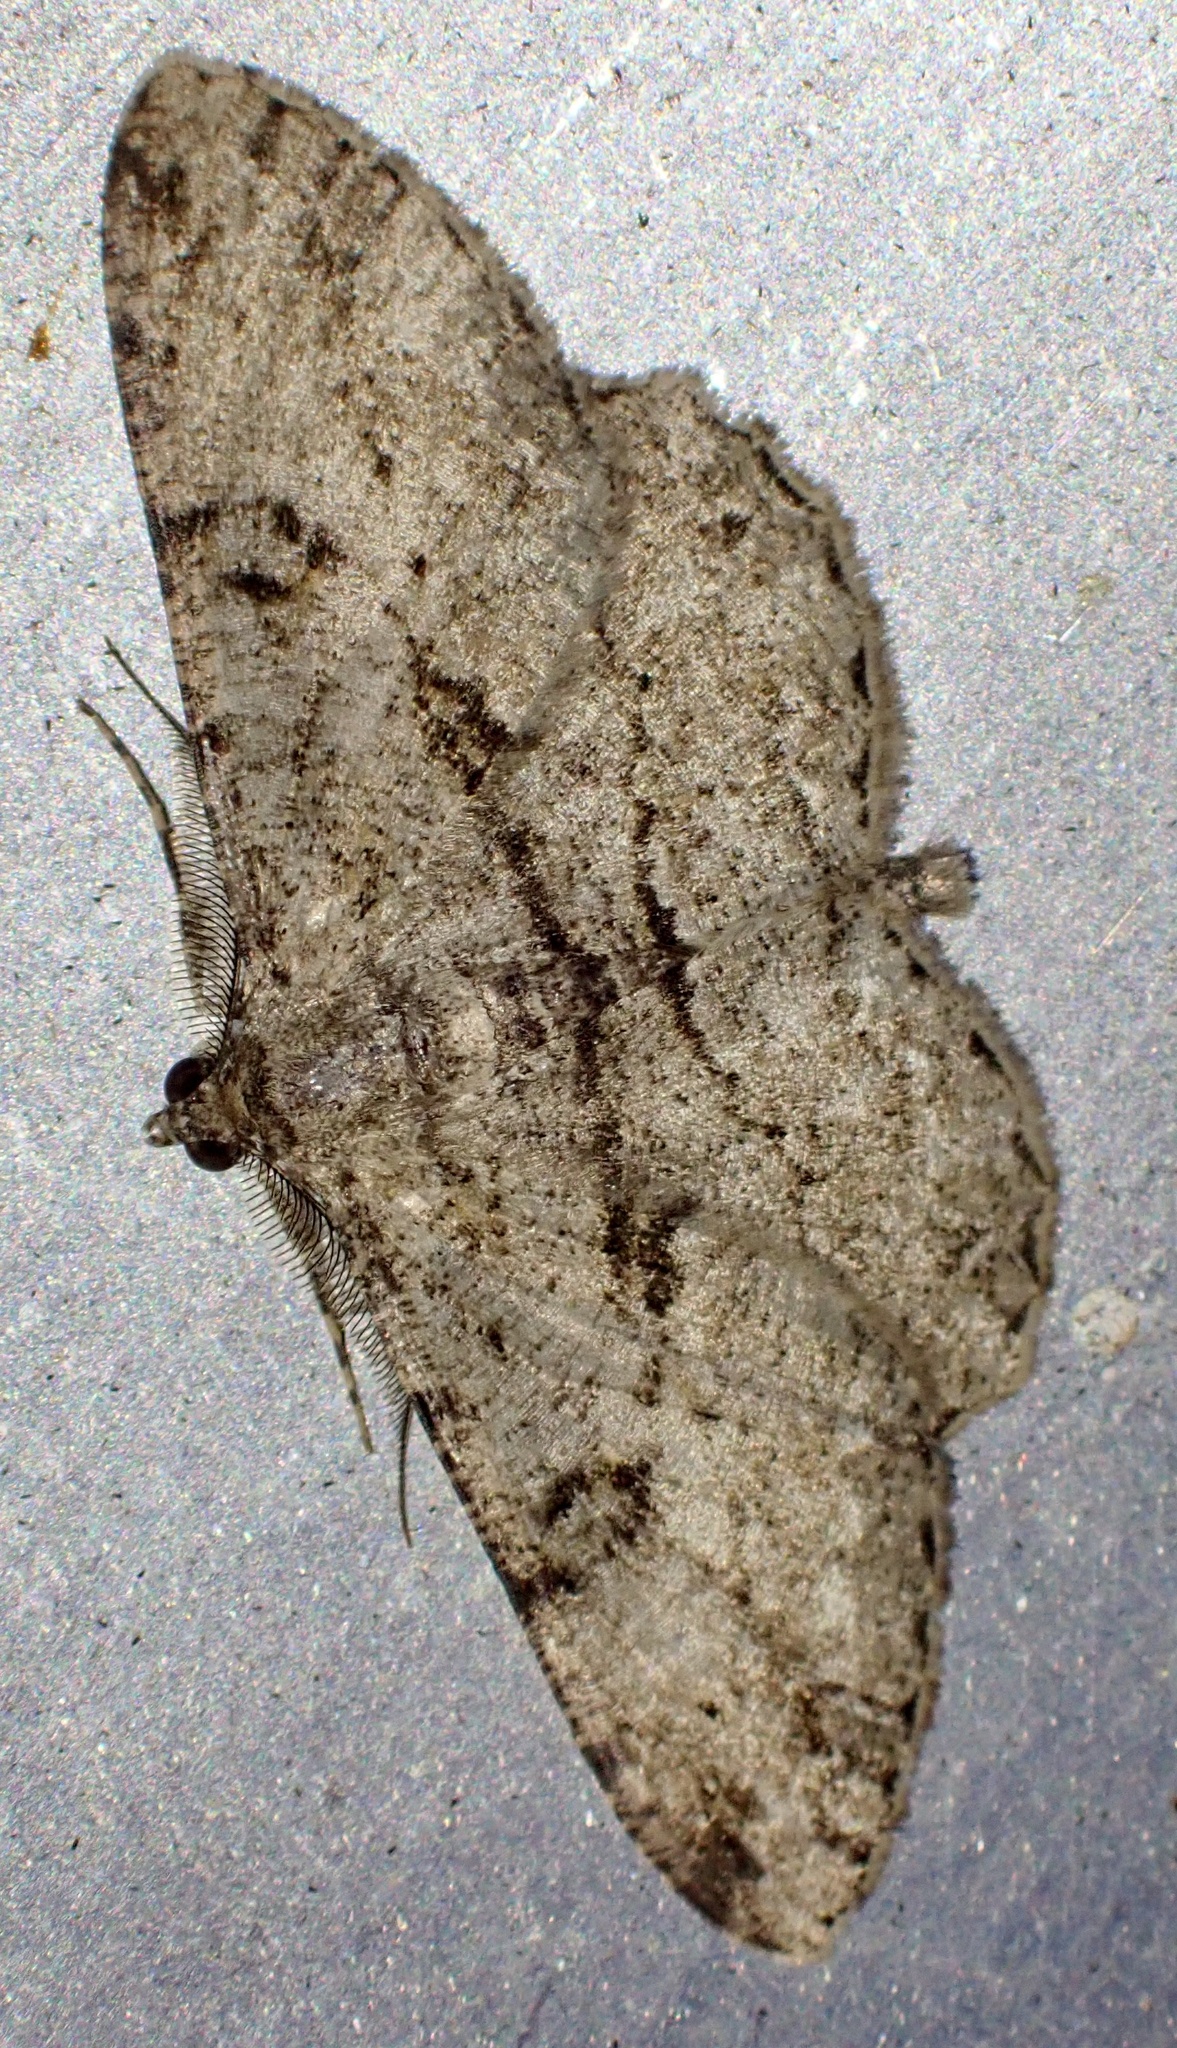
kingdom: Animalia
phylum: Arthropoda
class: Insecta
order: Lepidoptera
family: Geometridae
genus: Peribatodes
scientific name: Peribatodes rhomboidaria
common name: Willow beauty
